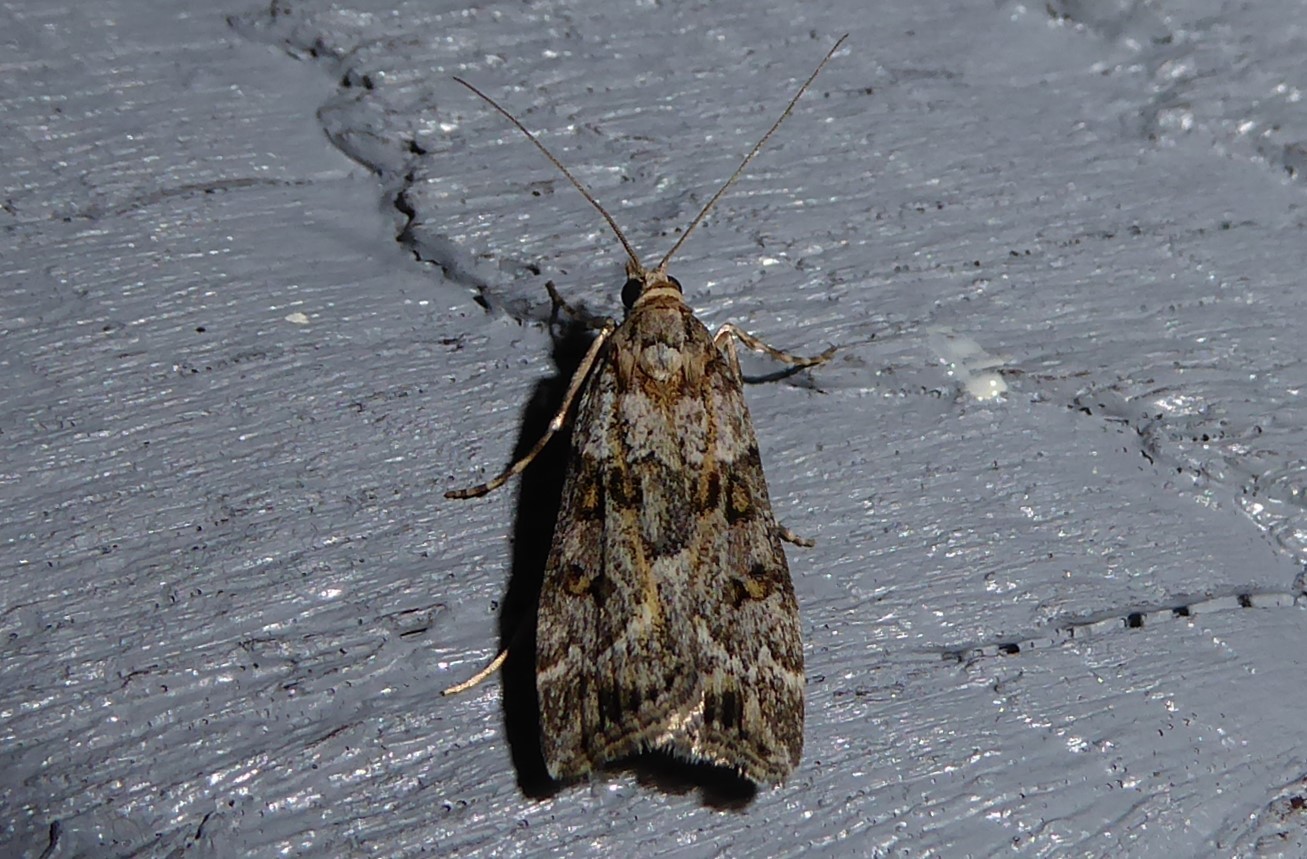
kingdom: Animalia
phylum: Arthropoda
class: Insecta
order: Lepidoptera
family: Crambidae
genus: Eudonia
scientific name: Eudonia diphtheralis
